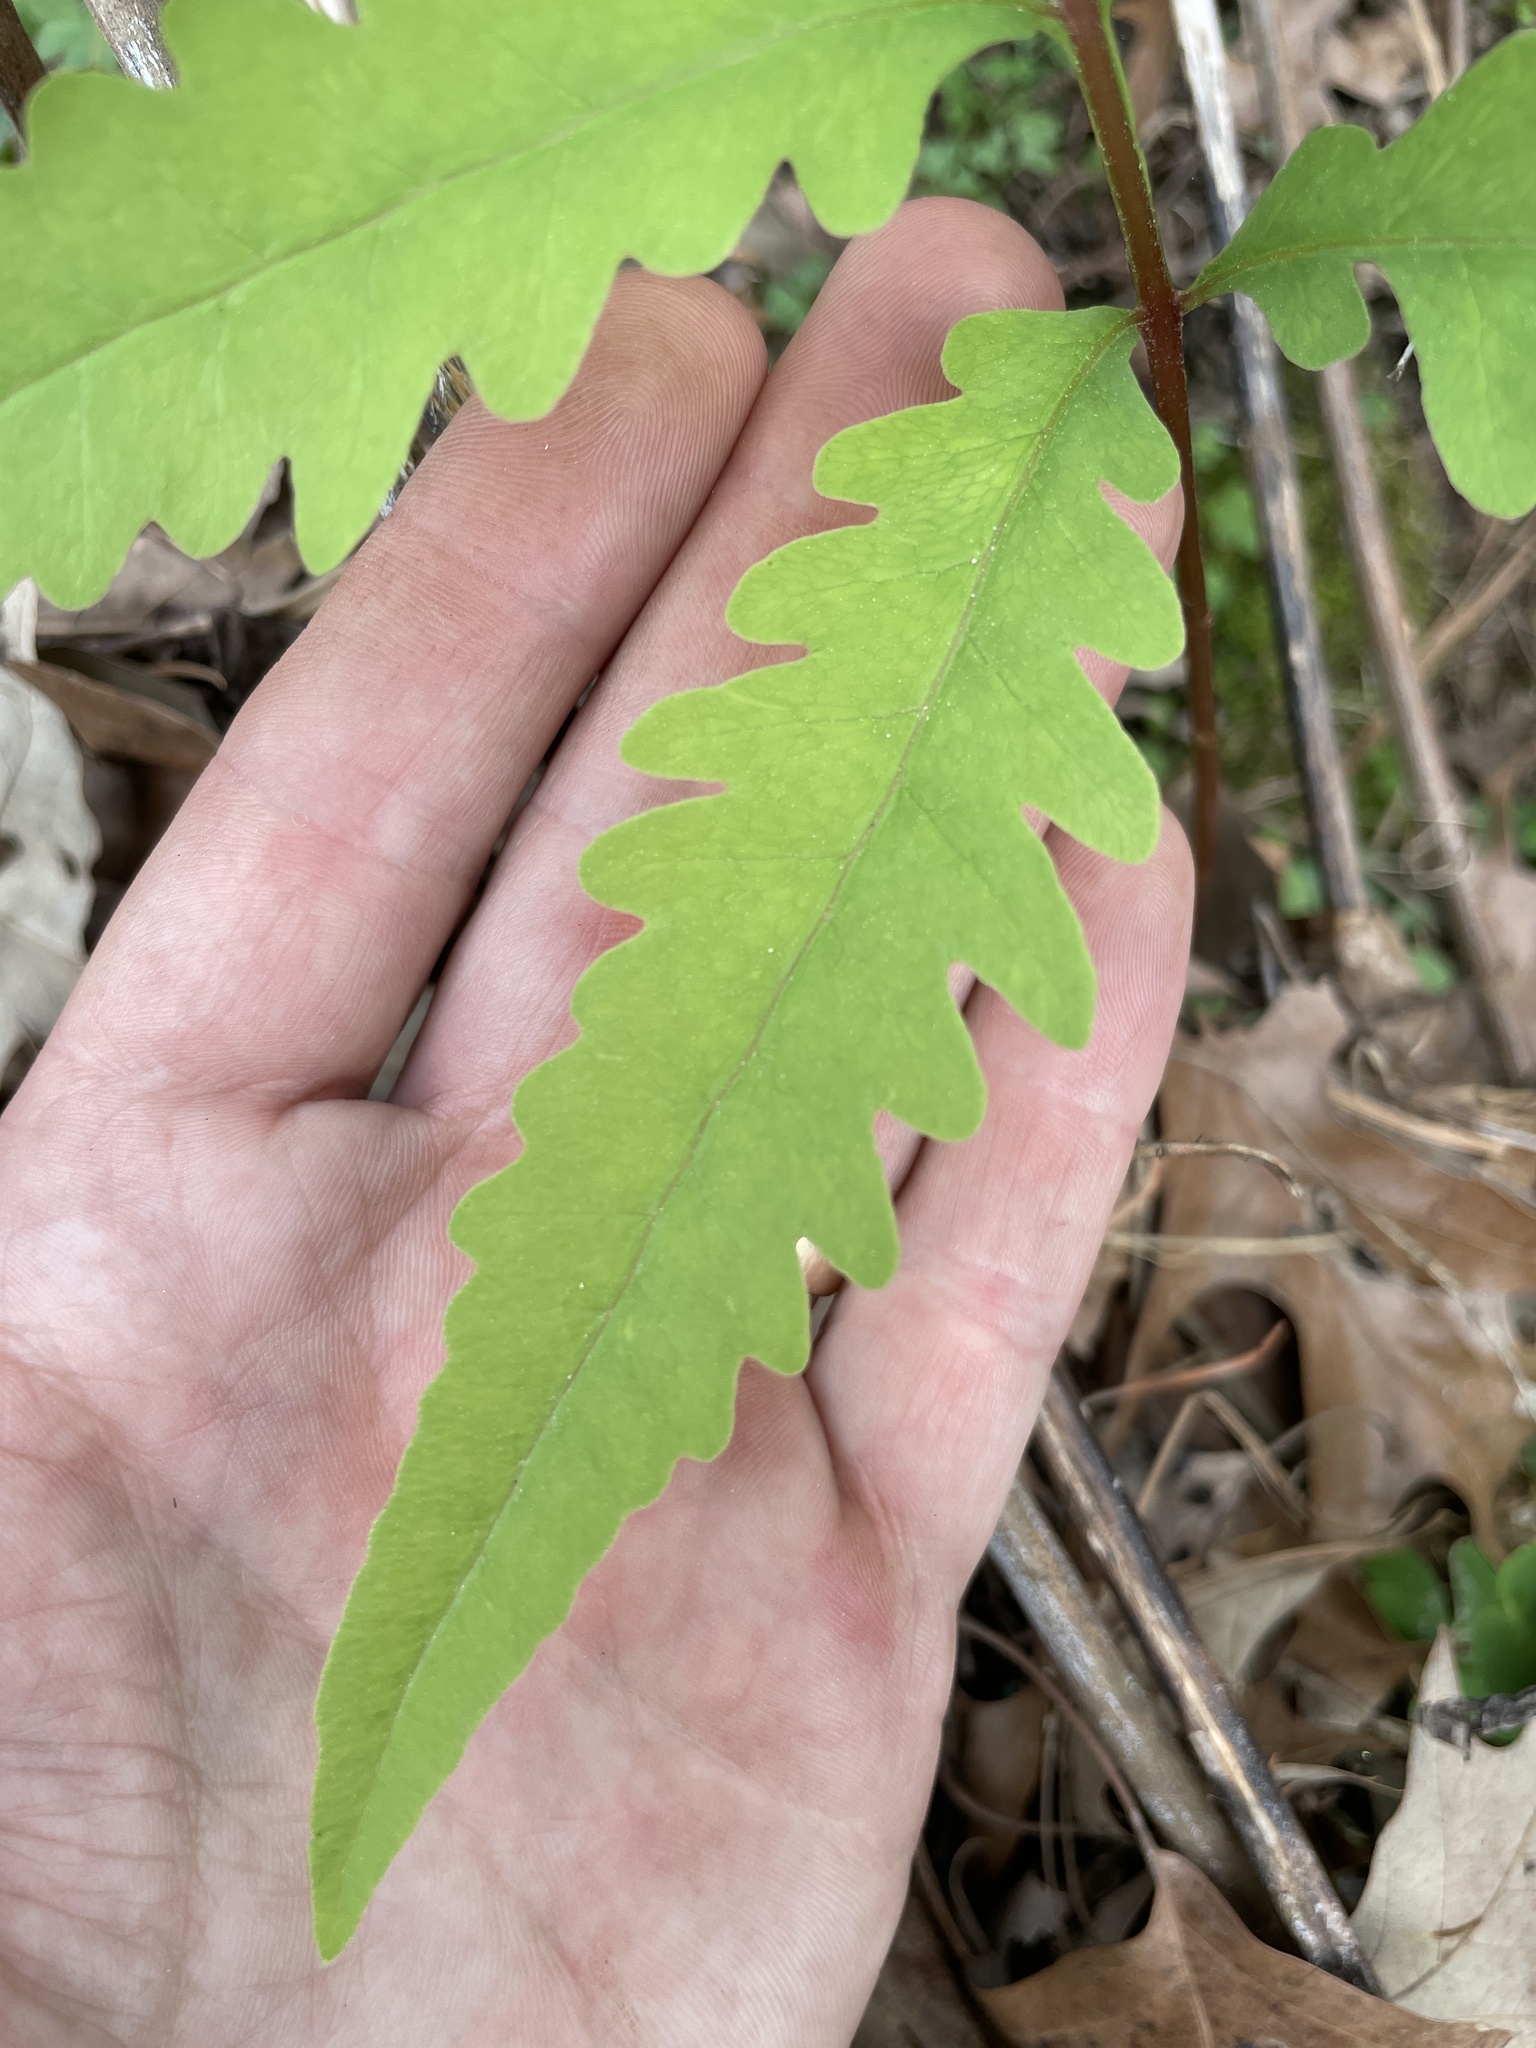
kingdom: Plantae
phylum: Tracheophyta
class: Polypodiopsida
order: Polypodiales
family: Onocleaceae
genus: Onoclea
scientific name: Onoclea sensibilis
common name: Sensitive fern
